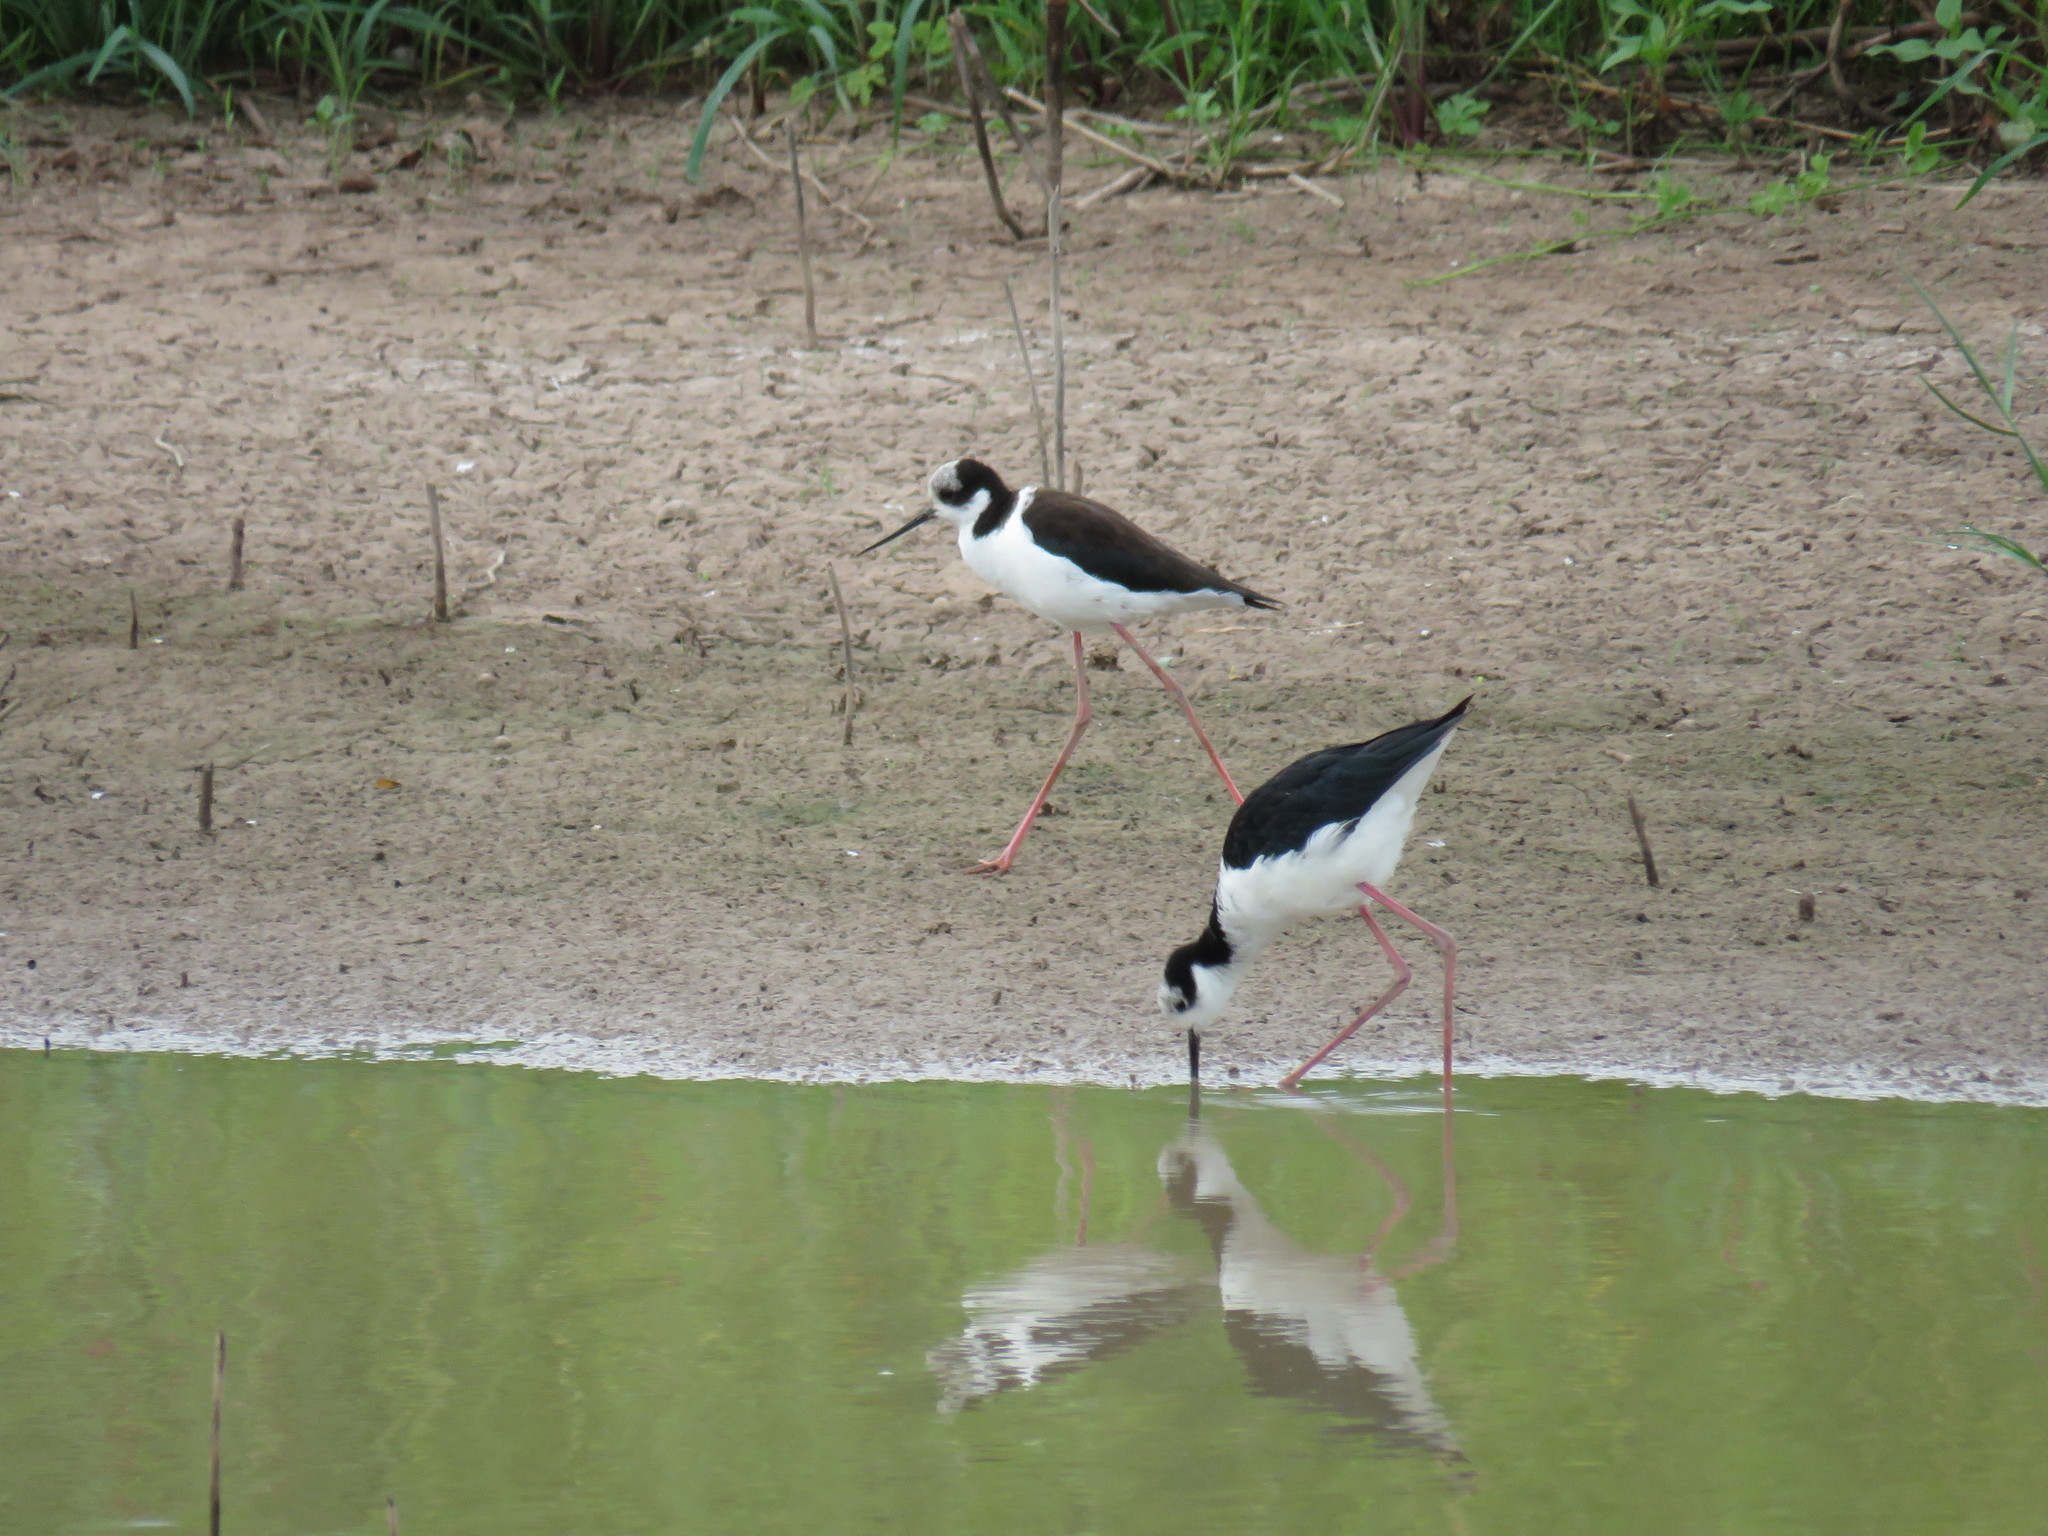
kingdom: Animalia
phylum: Chordata
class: Aves
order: Charadriiformes
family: Recurvirostridae
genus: Himantopus
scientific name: Himantopus mexicanus
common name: Black-necked stilt
